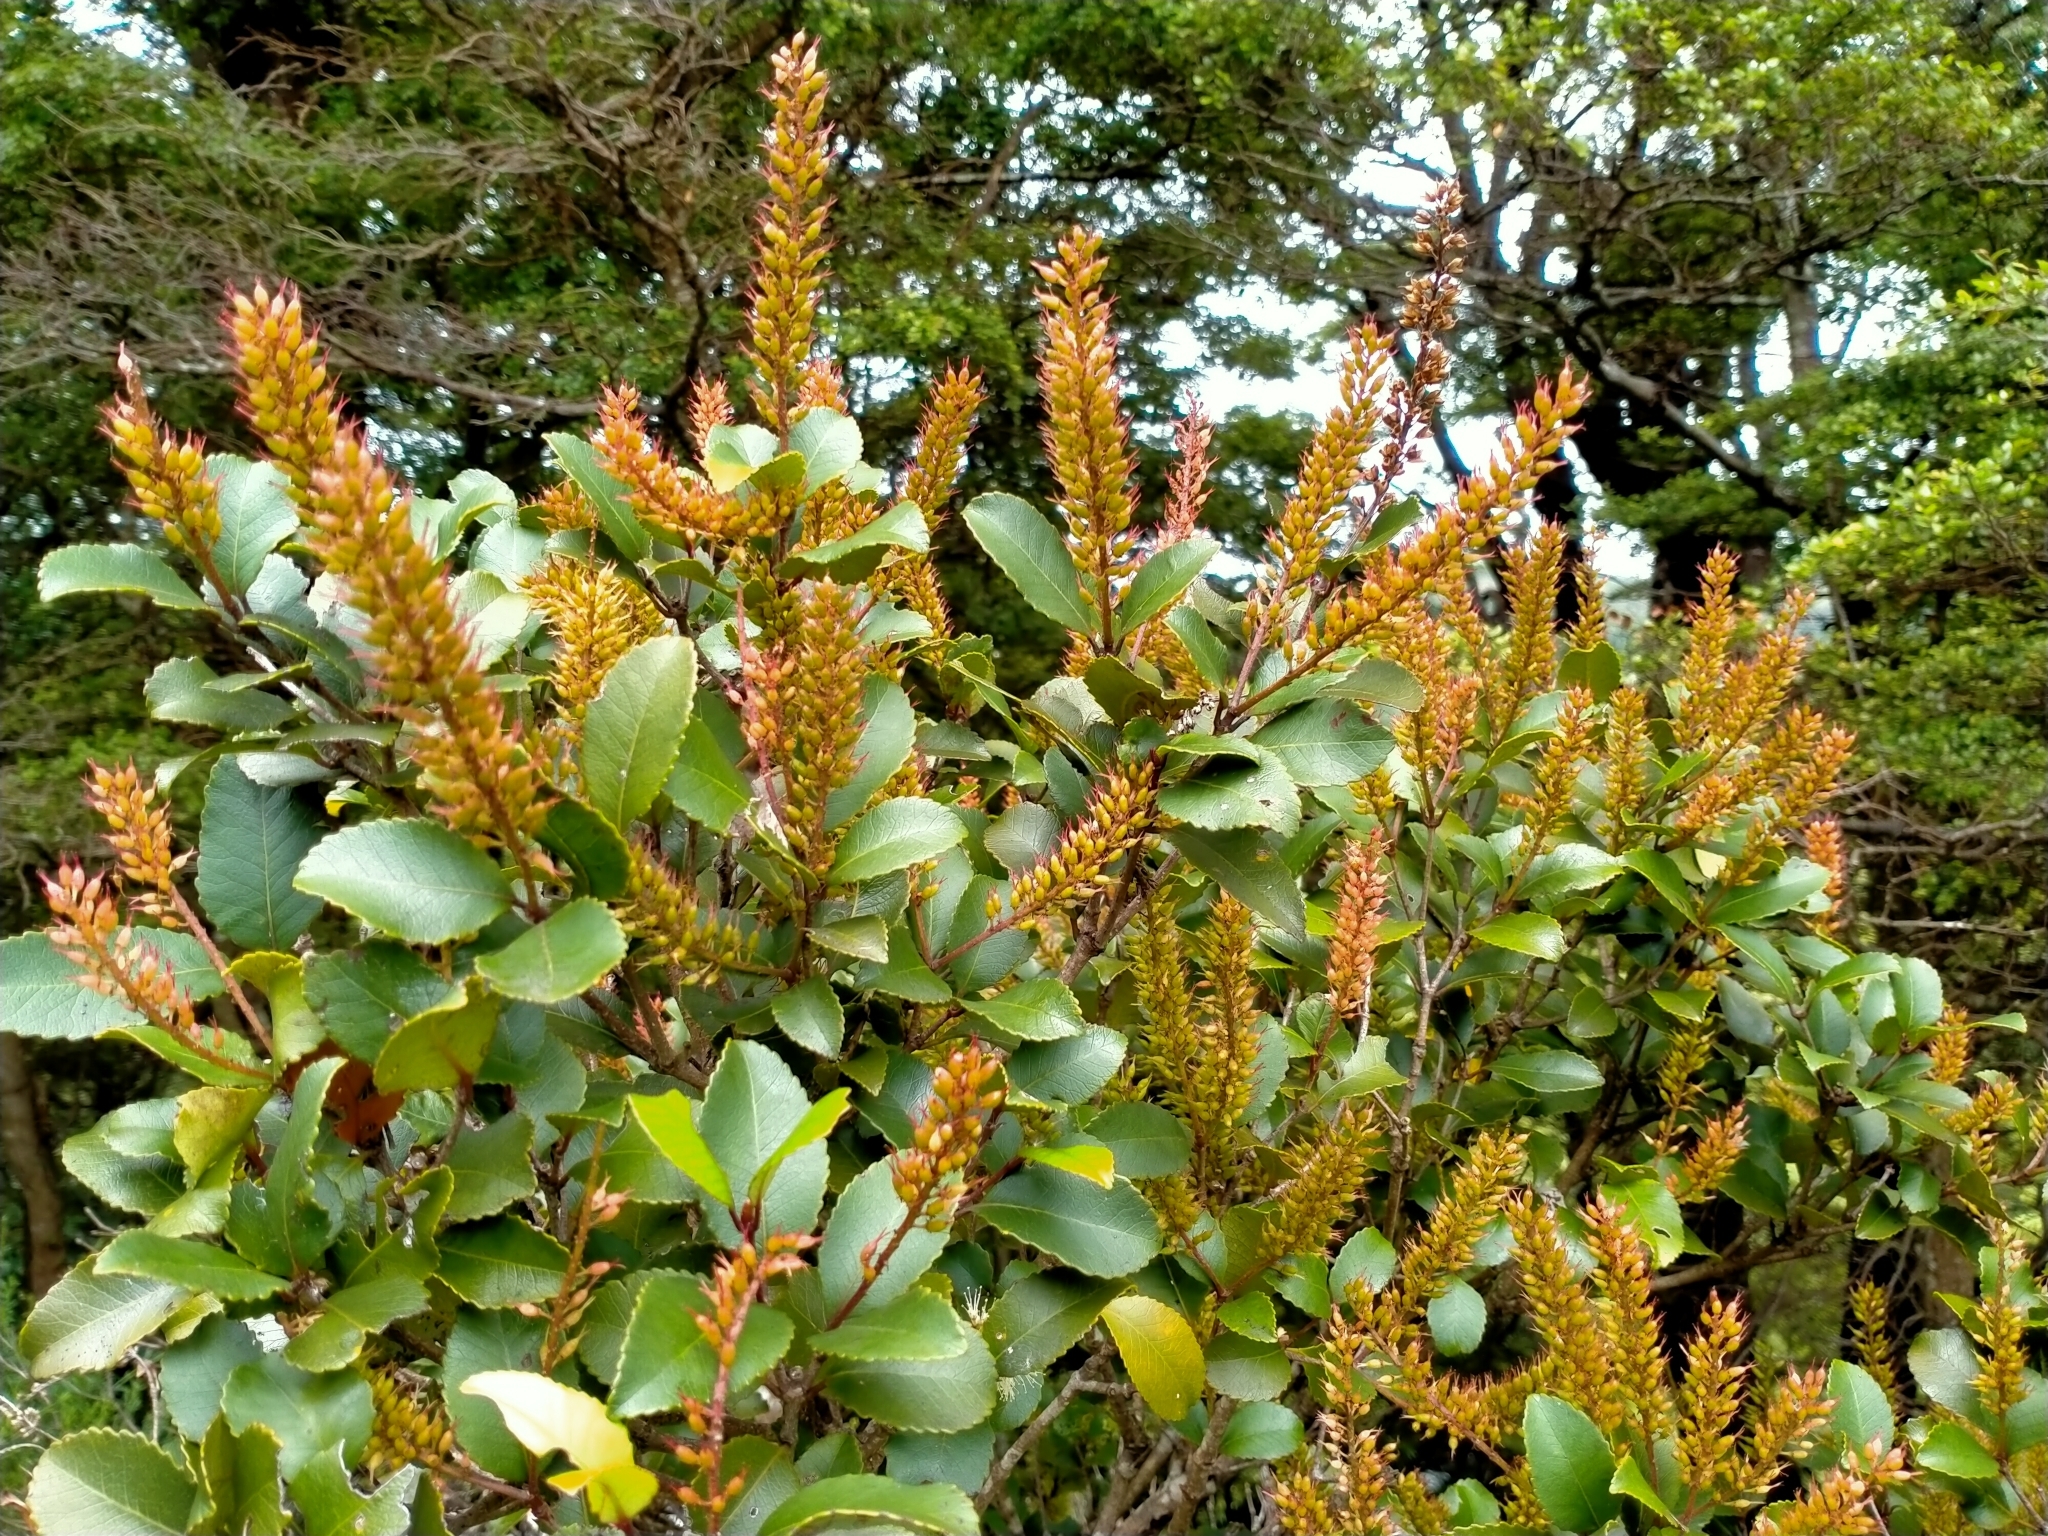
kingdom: Plantae
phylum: Tracheophyta
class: Magnoliopsida
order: Oxalidales
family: Cunoniaceae
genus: Pterophylla
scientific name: Pterophylla racemosa
